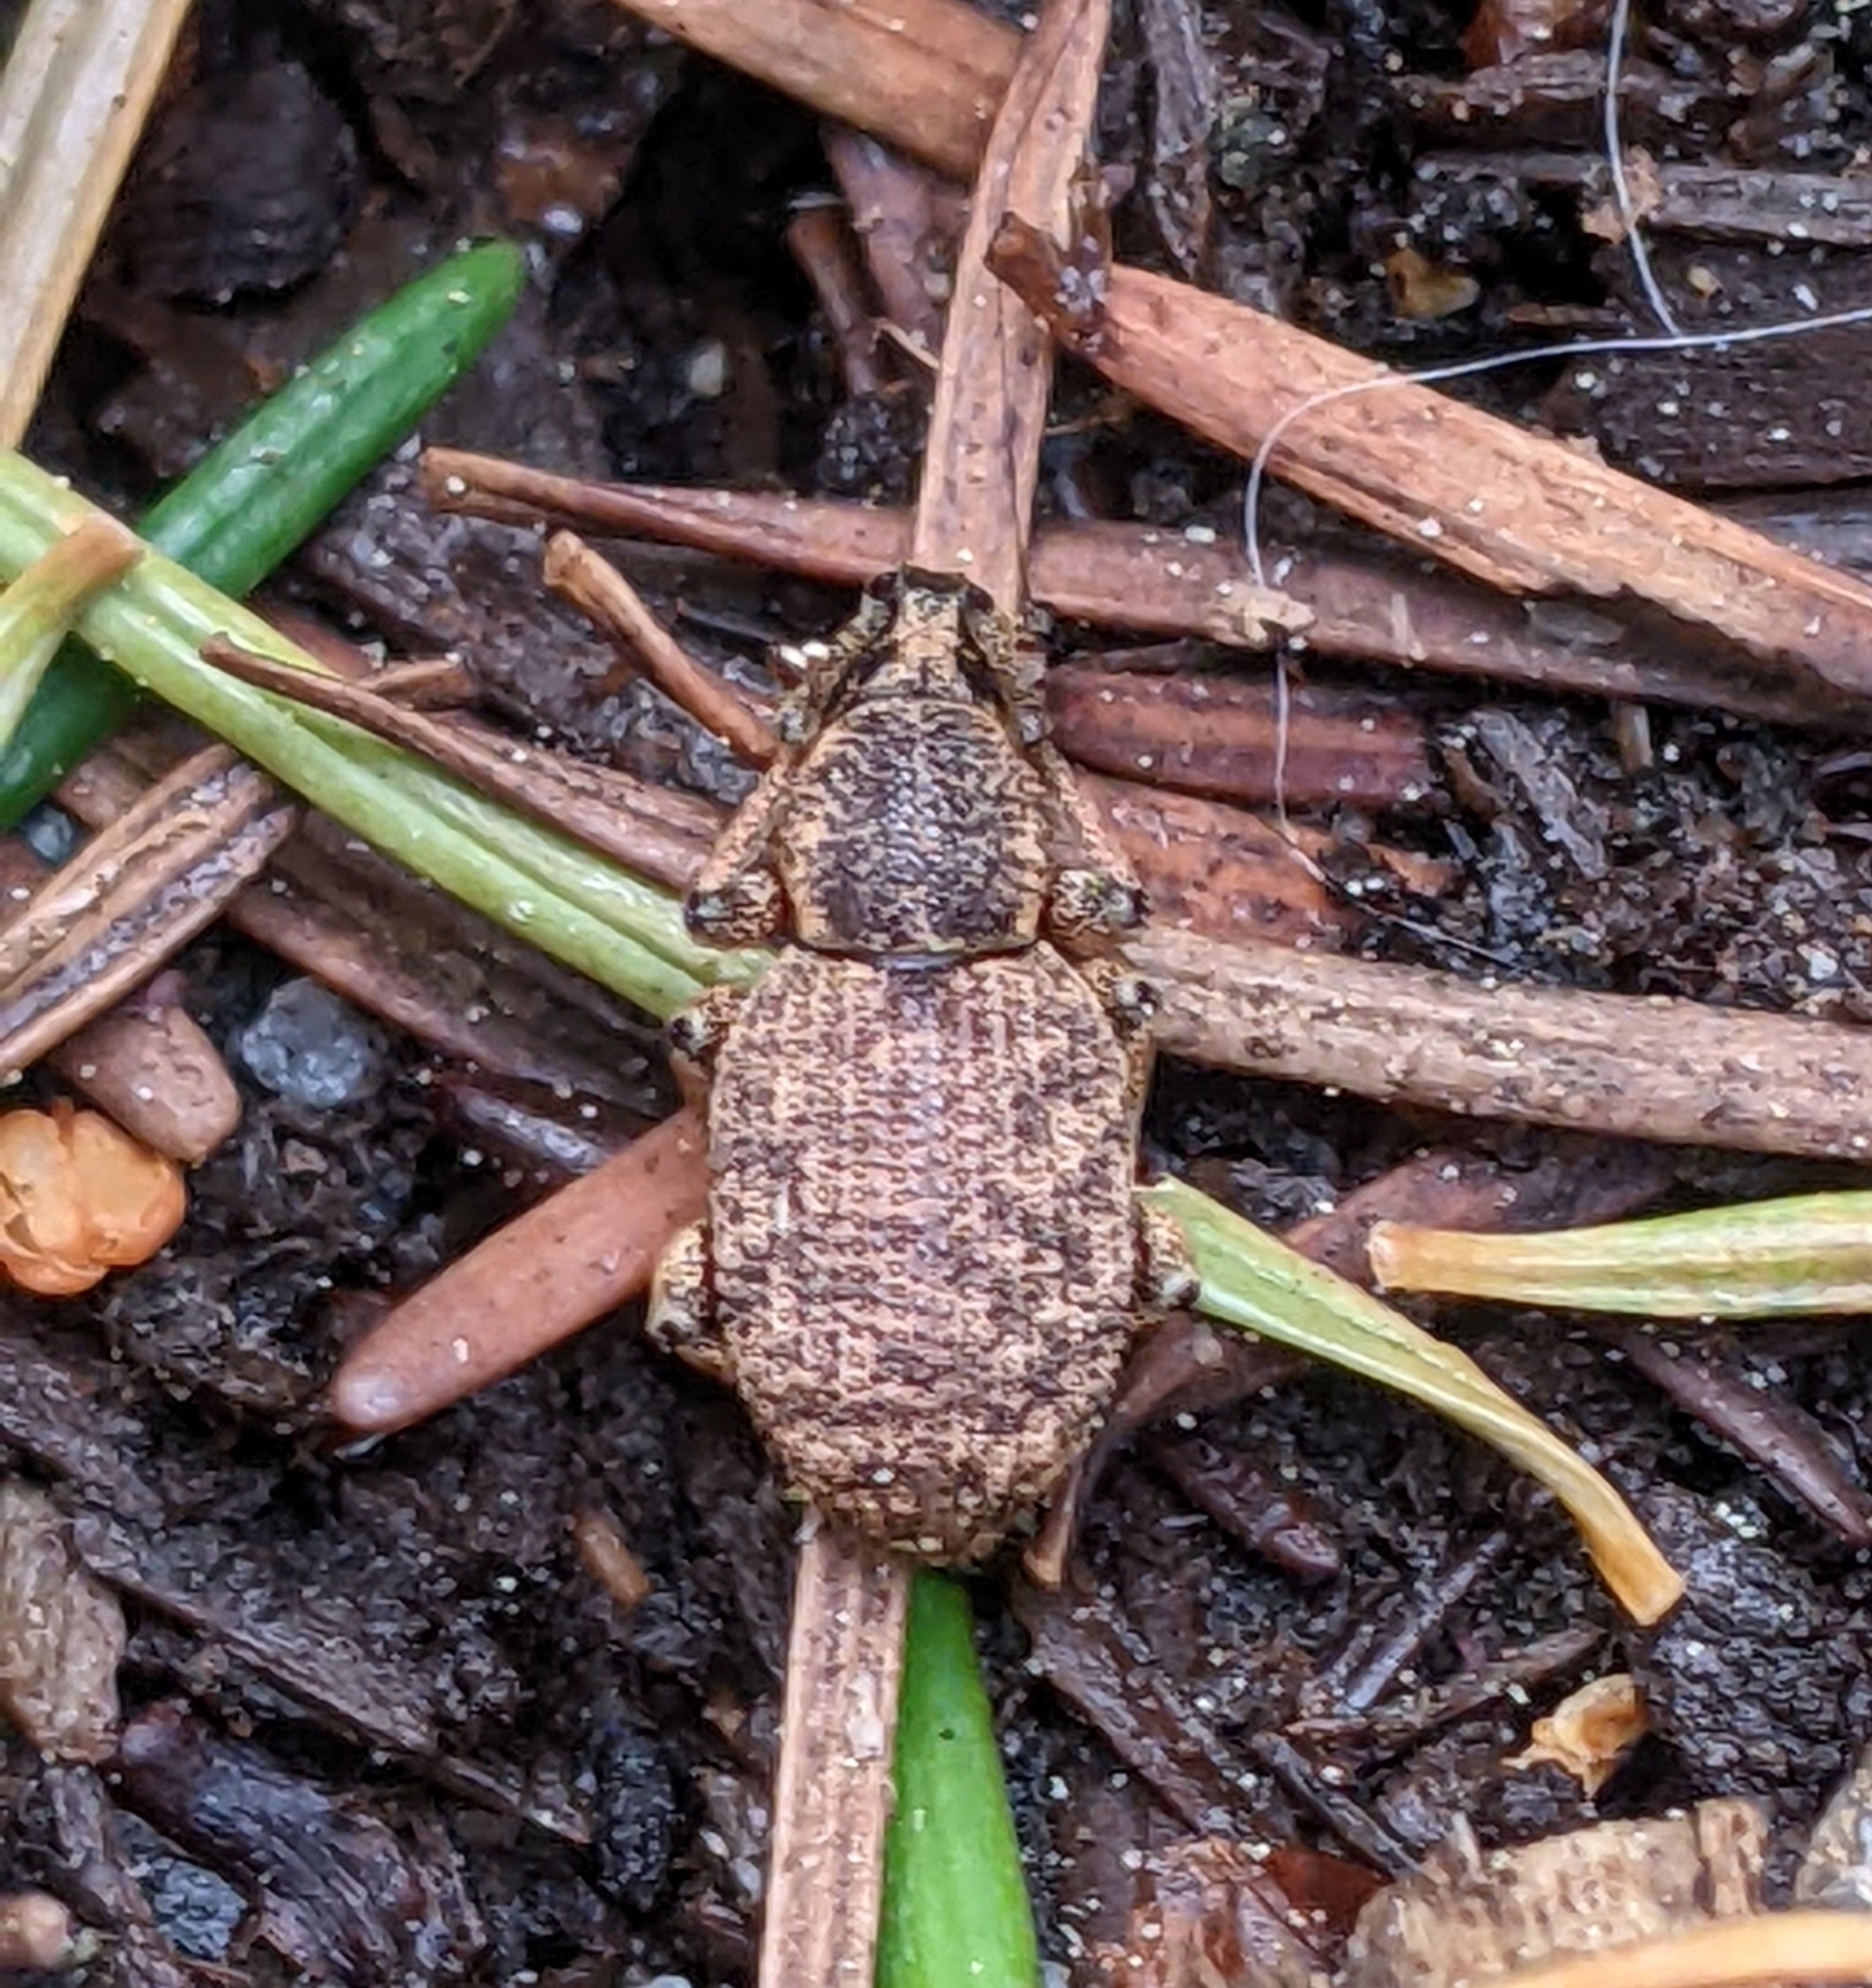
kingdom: Animalia
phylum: Arthropoda
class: Insecta
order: Coleoptera
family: Curculionidae
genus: Otiorhynchus
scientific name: Otiorhynchus singularis
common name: Clay-coloured weevil
